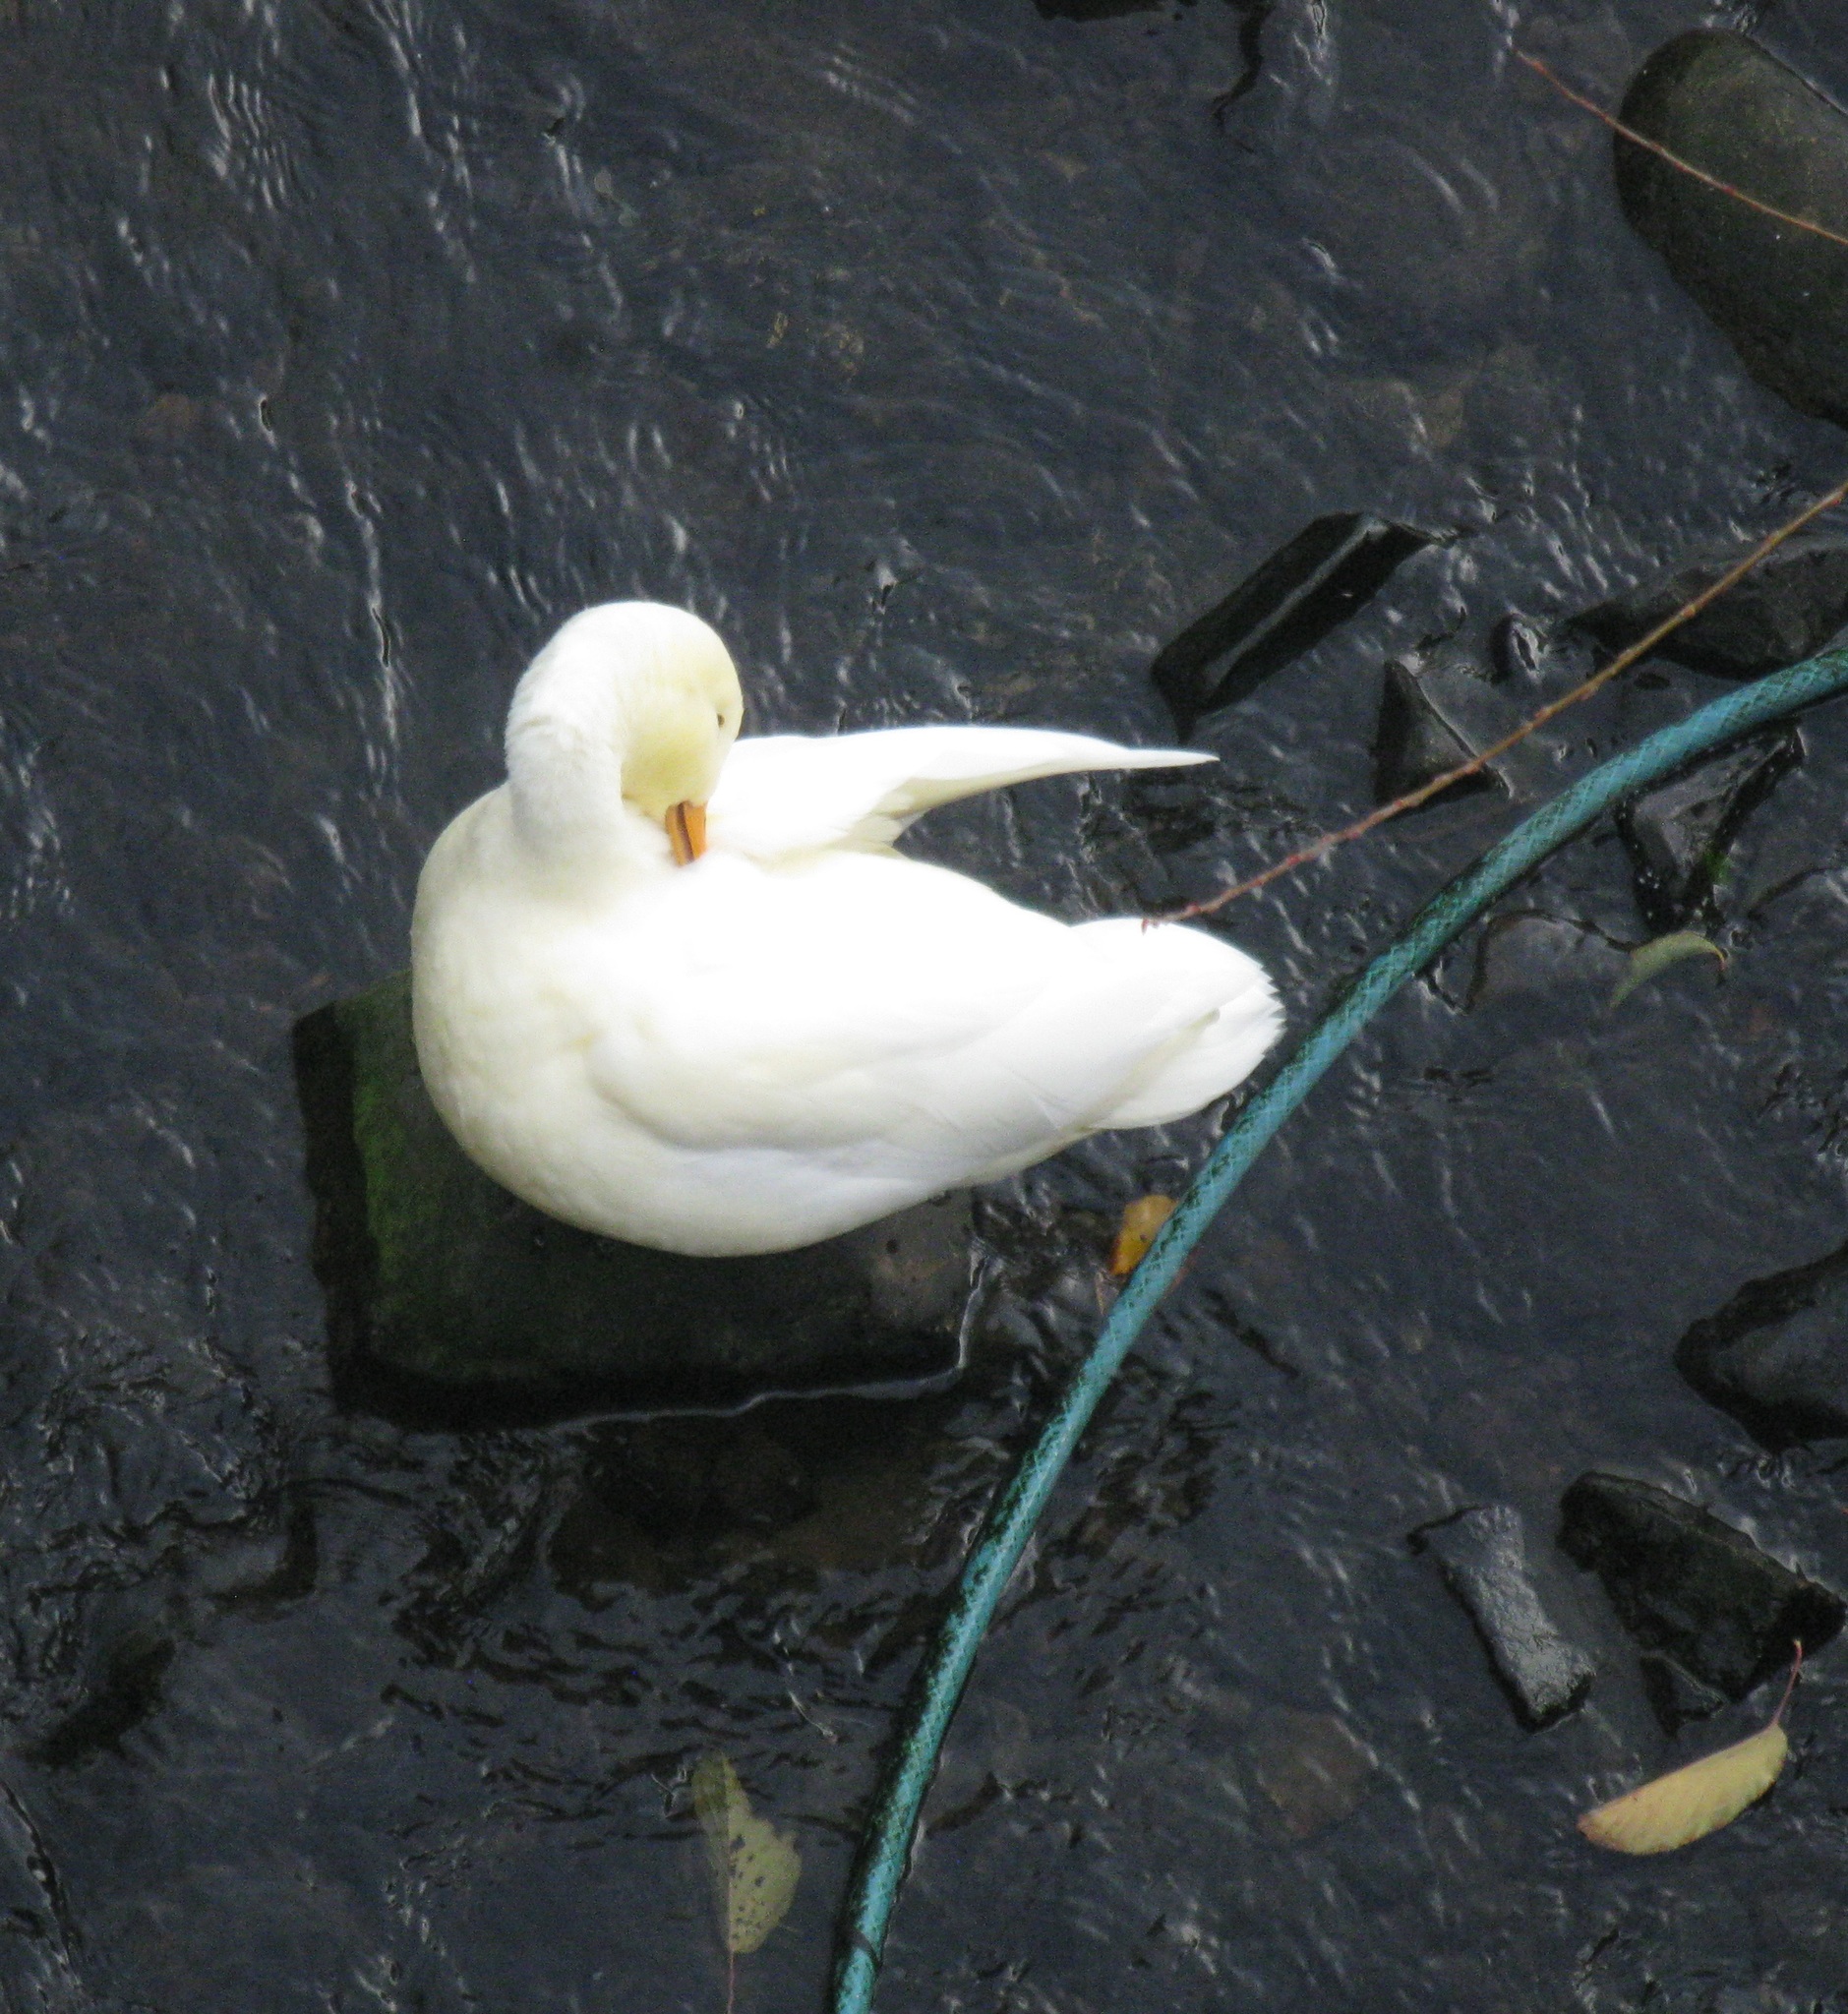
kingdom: Animalia
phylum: Chordata
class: Aves
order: Anseriformes
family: Anatidae
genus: Anas
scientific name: Anas platyrhynchos
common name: Mallard
